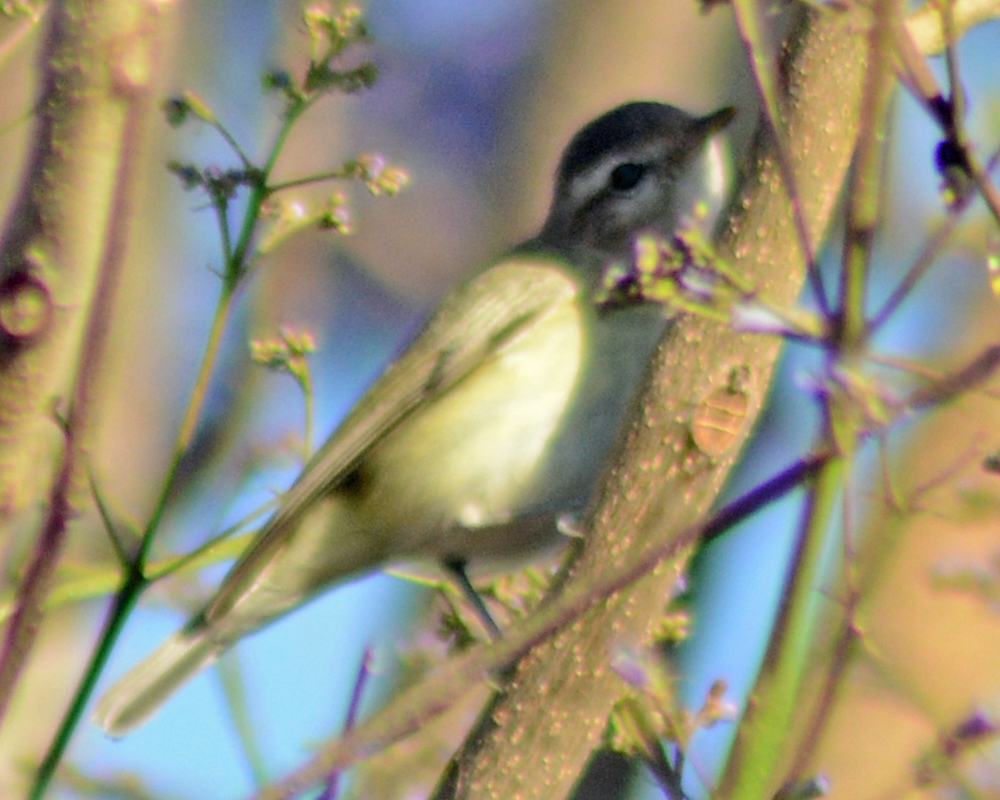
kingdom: Animalia
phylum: Chordata
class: Aves
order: Passeriformes
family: Vireonidae
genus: Vireo
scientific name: Vireo gilvus
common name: Warbling vireo
